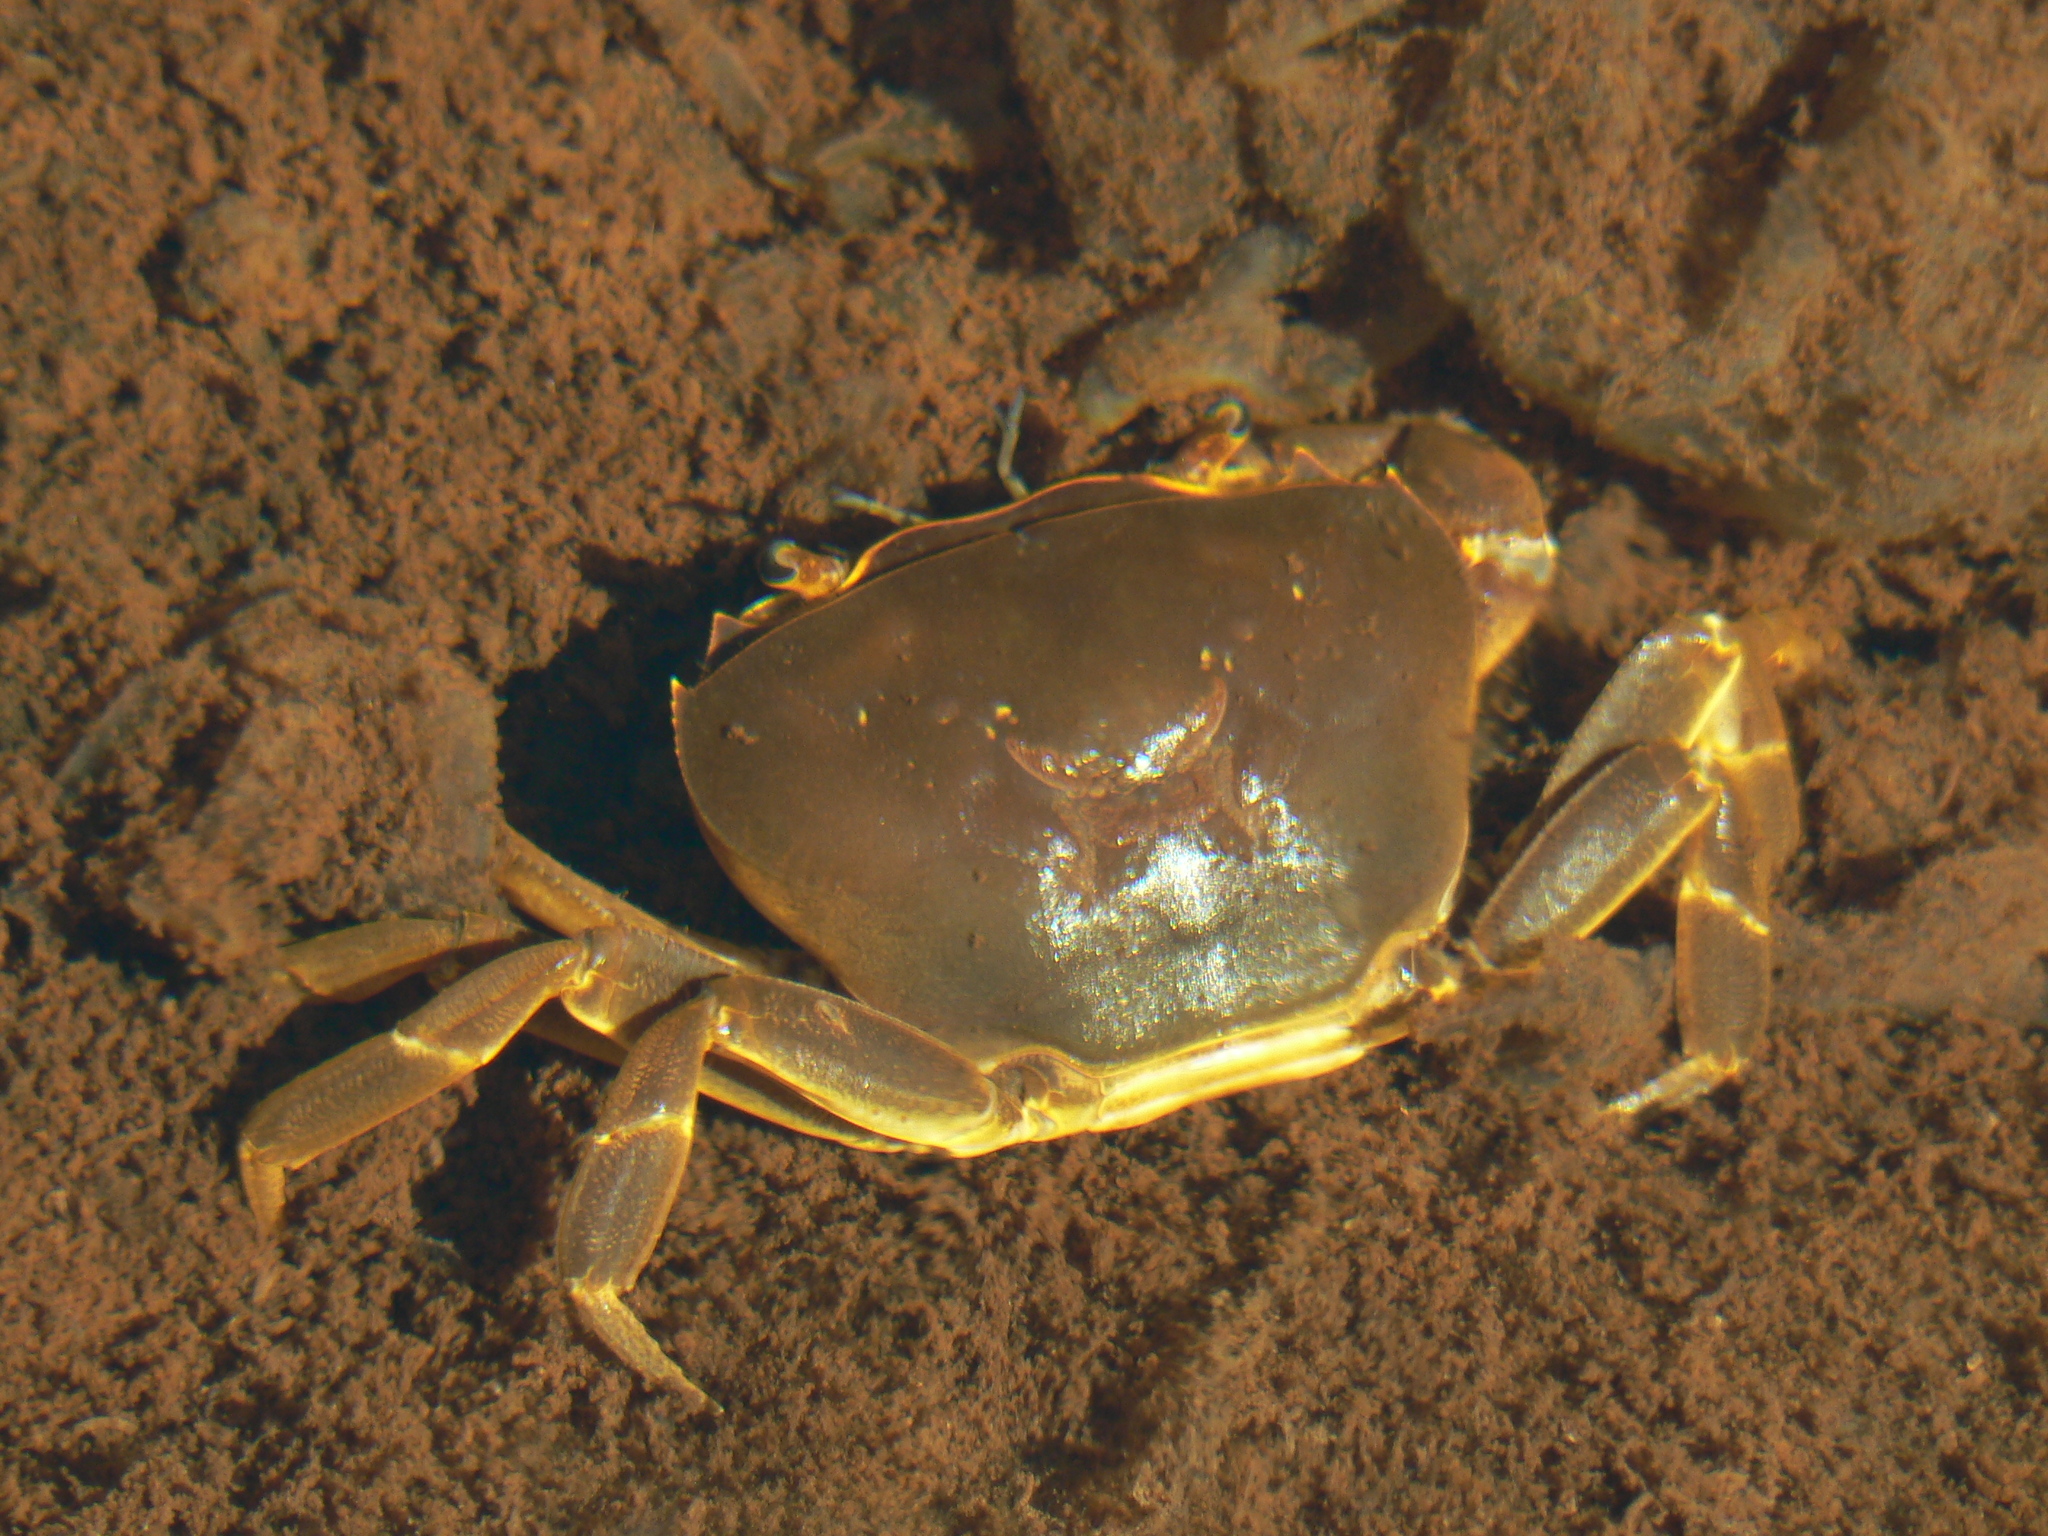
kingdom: Animalia
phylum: Arthropoda
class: Malacostraca
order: Decapoda
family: Potamonautidae
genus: Potamonautes
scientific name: Potamonautes unispinus
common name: Single-spined river crab
